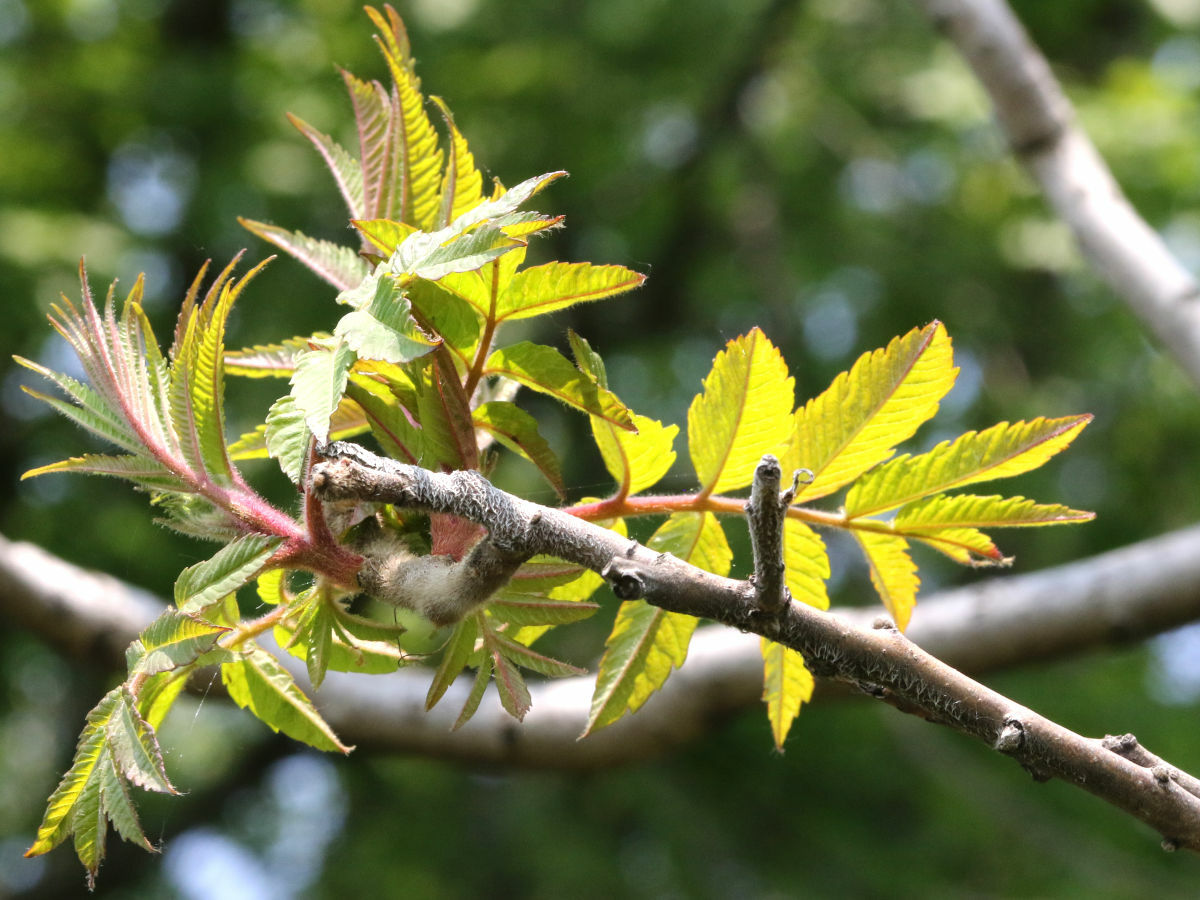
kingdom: Plantae
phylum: Tracheophyta
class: Magnoliopsida
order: Sapindales
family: Anacardiaceae
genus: Rhus
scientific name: Rhus typhina
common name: Staghorn sumac
